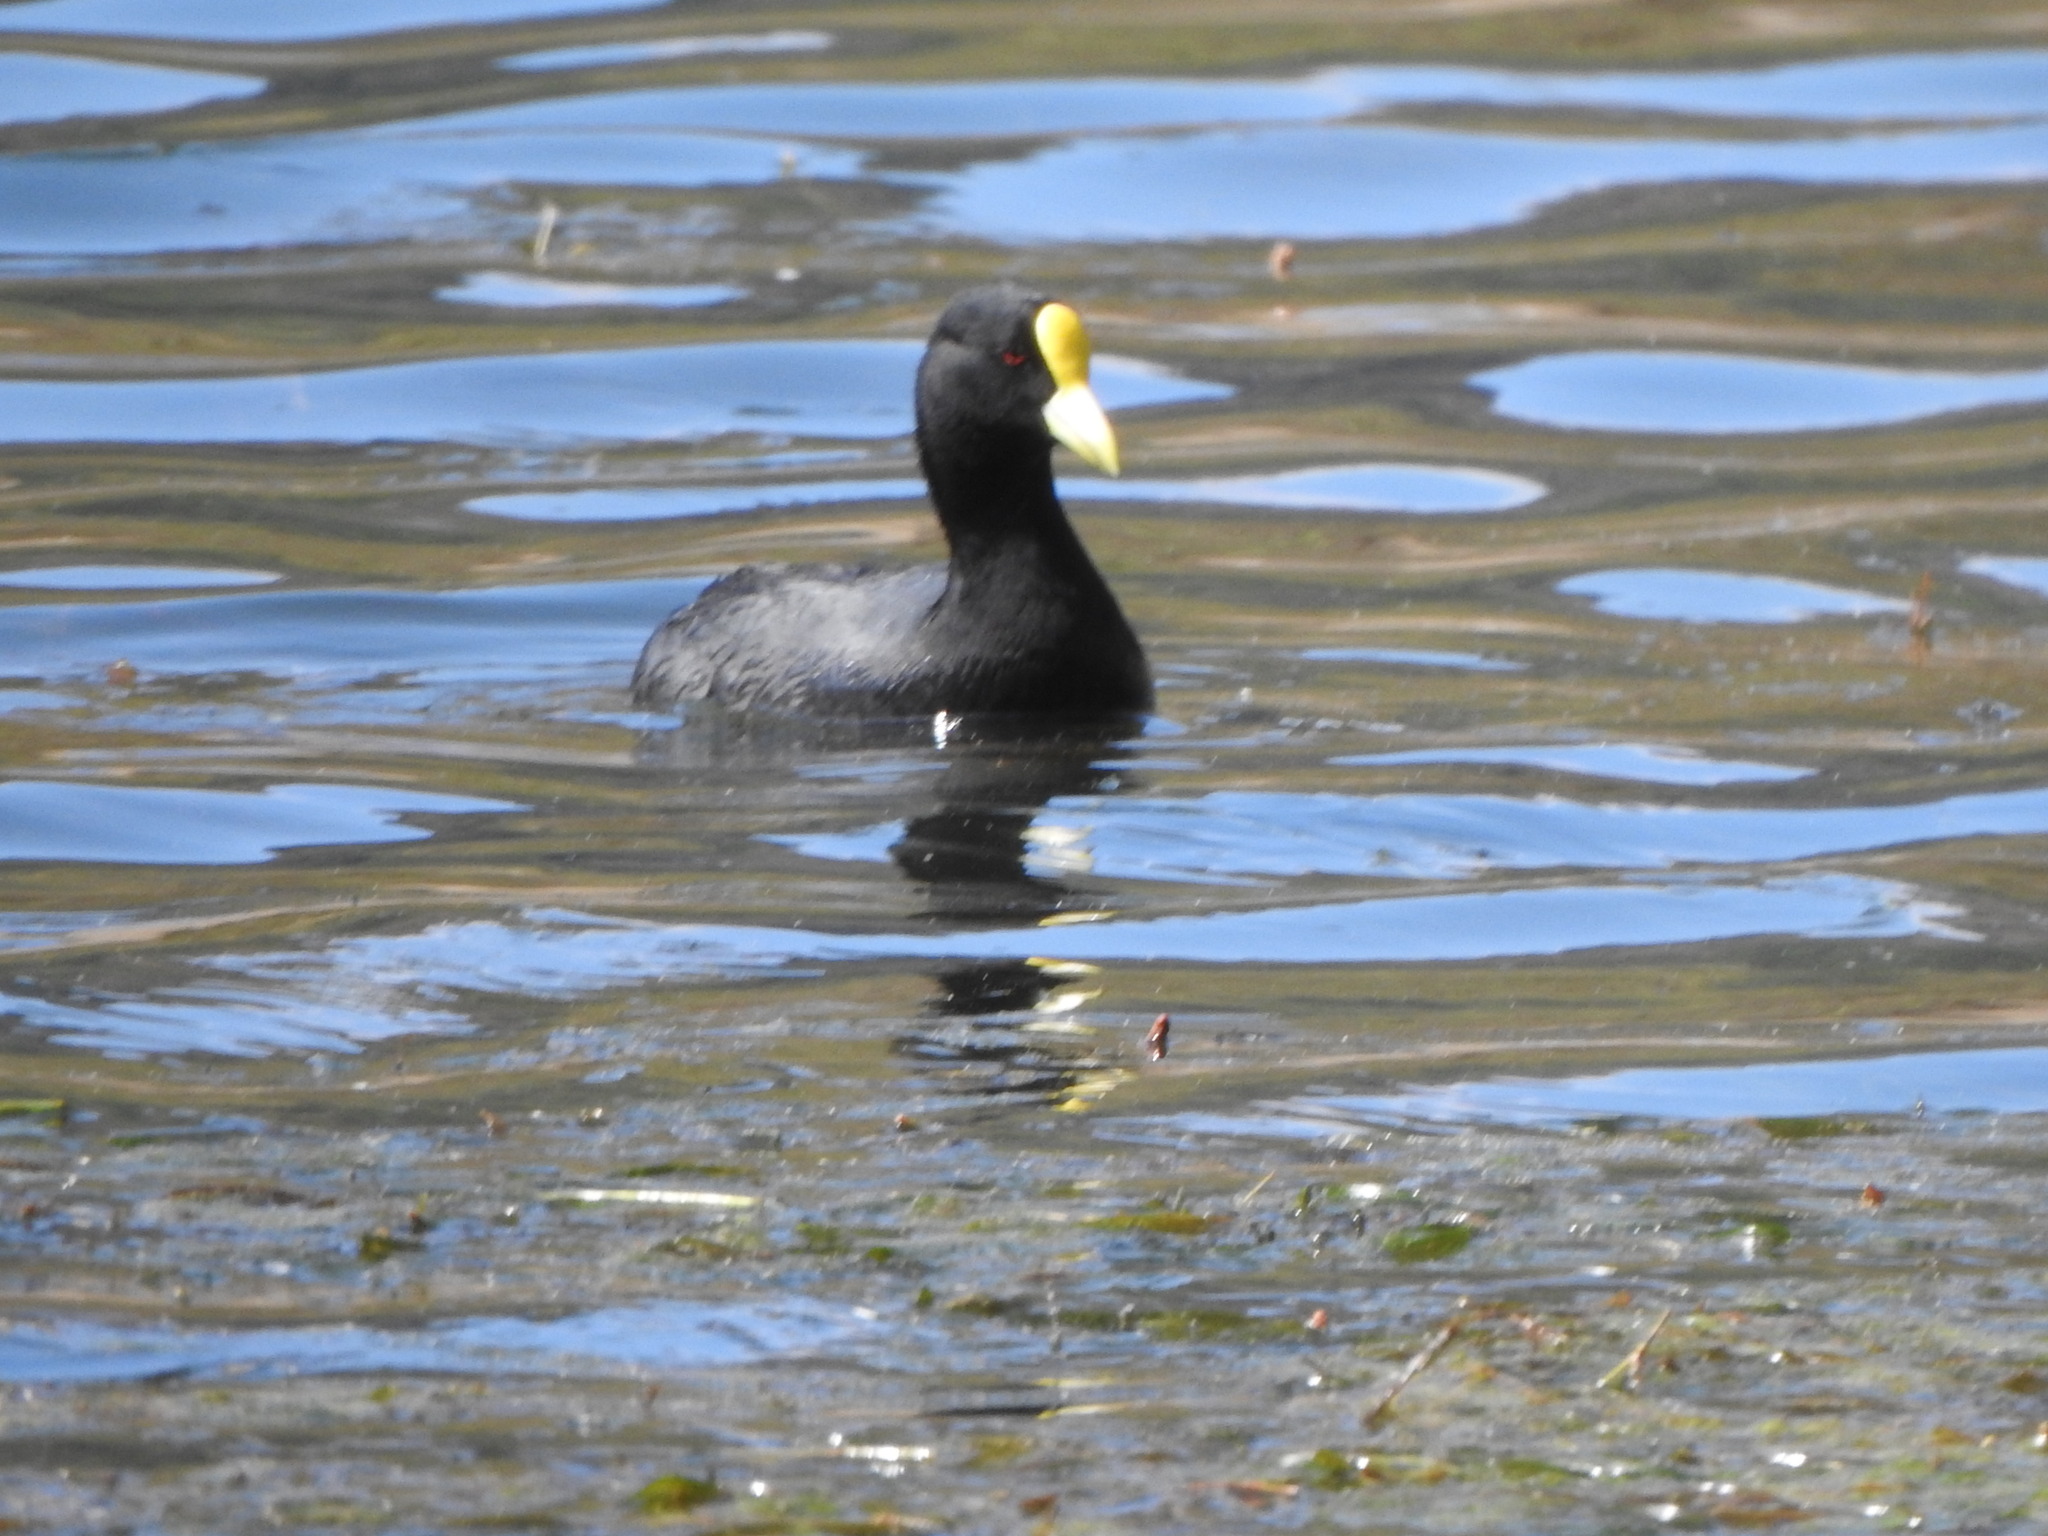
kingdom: Animalia
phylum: Chordata
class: Aves
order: Gruiformes
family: Rallidae
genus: Fulica
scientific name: Fulica leucoptera
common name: White-winged coot
